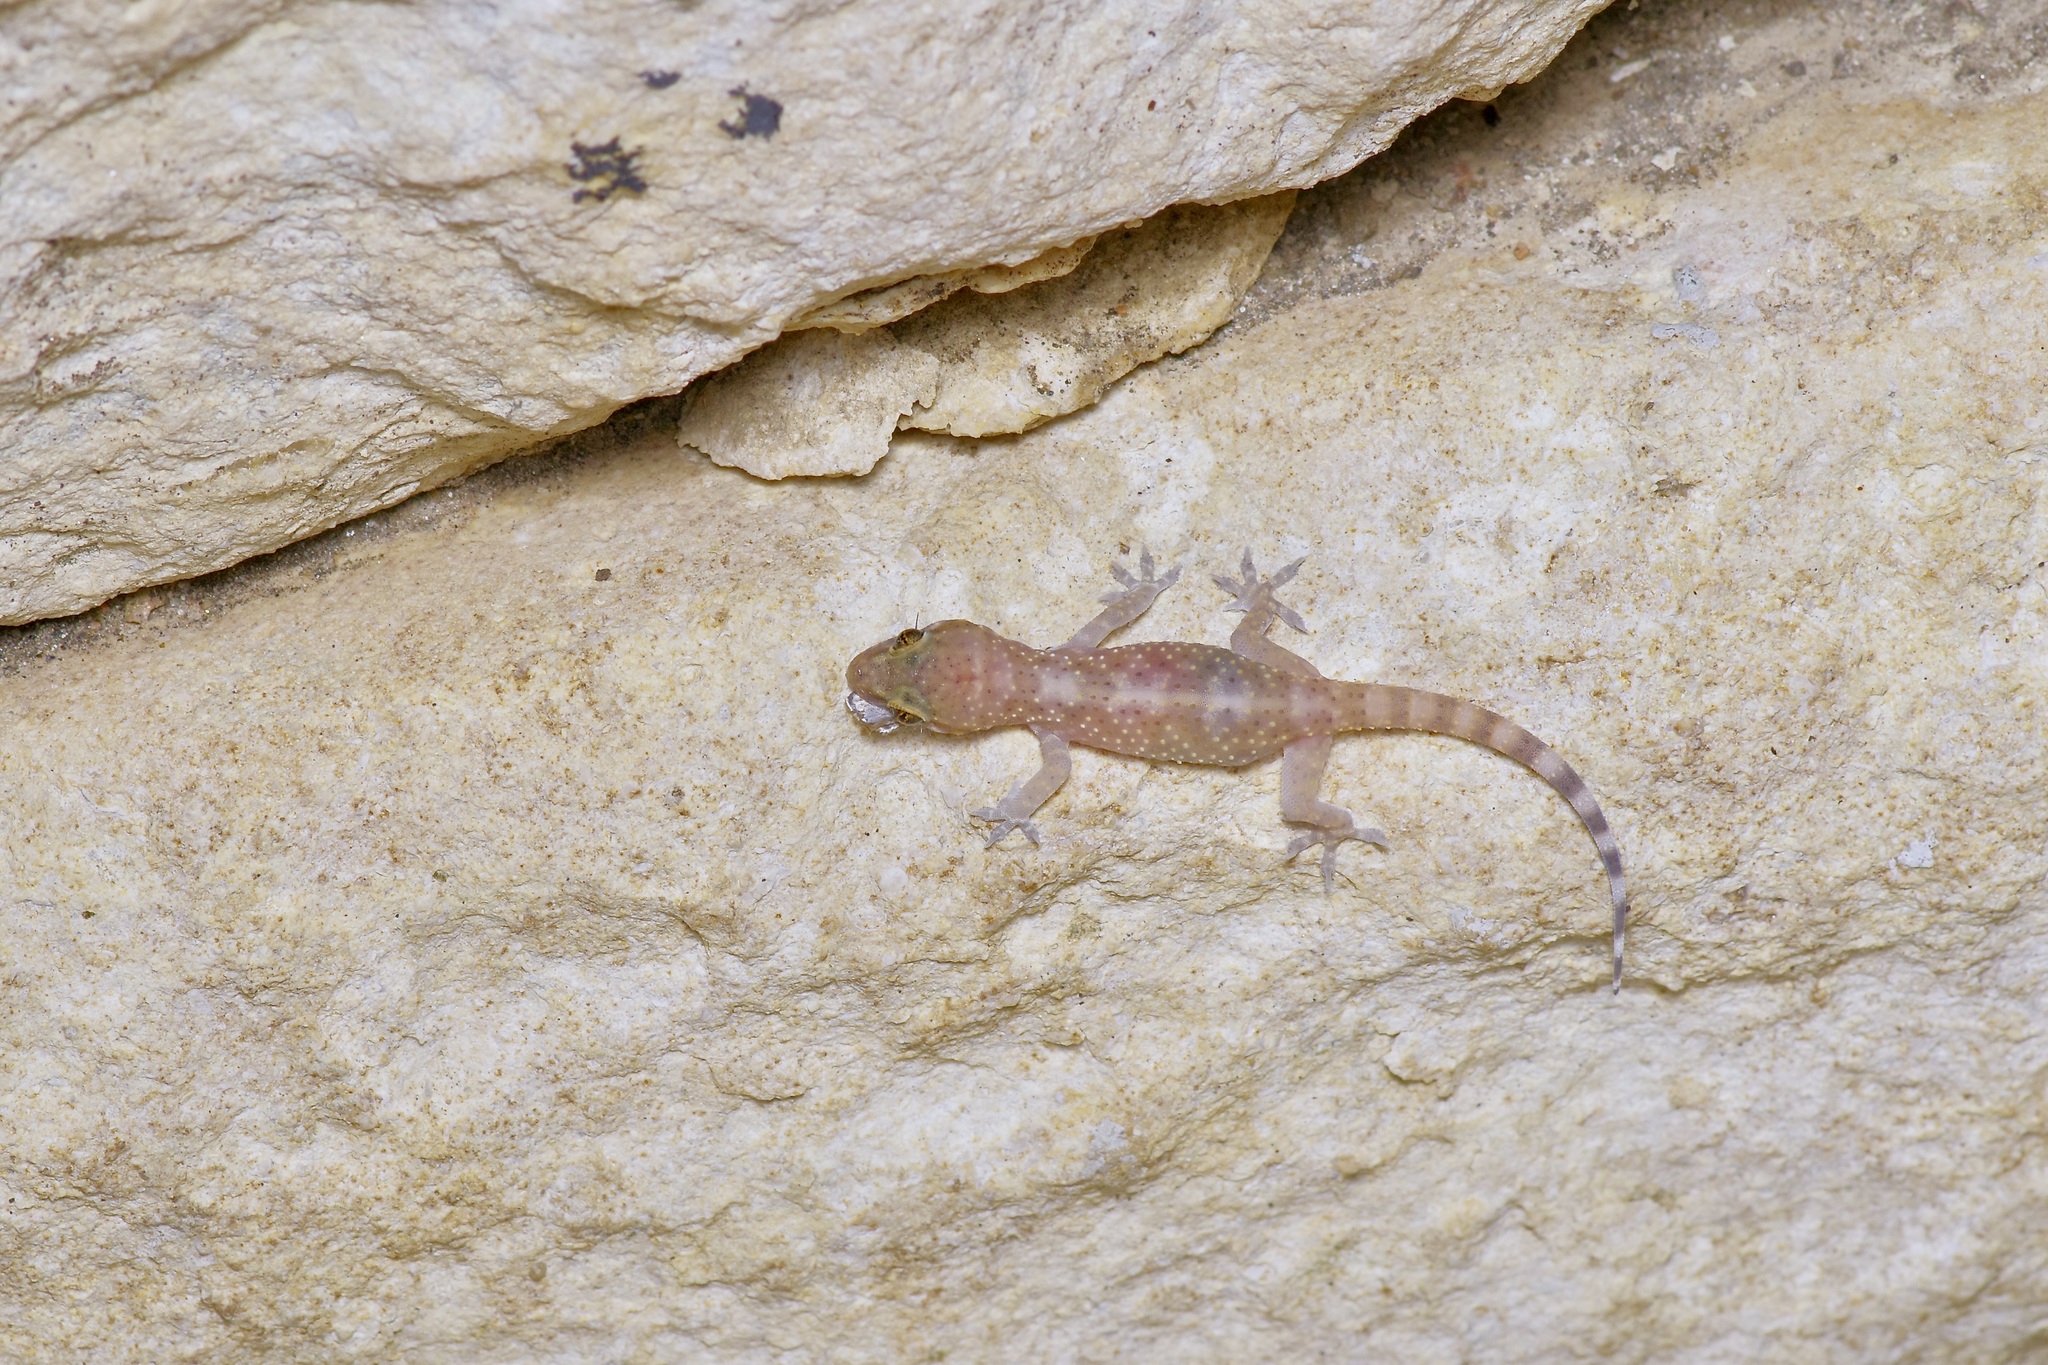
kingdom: Animalia
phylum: Chordata
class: Squamata
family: Gekkonidae
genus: Hemidactylus
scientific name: Hemidactylus turcicus
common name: Turkish gecko
